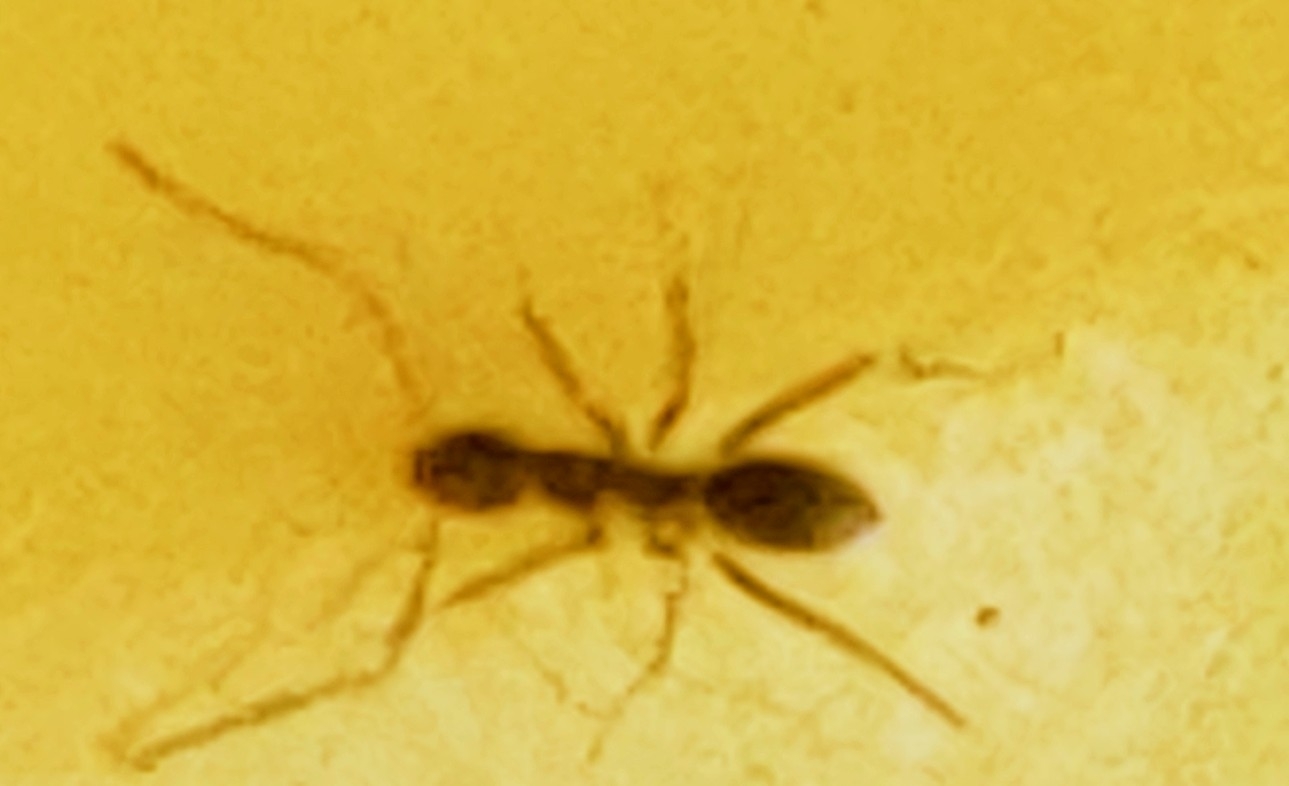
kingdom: Animalia
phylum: Arthropoda
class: Insecta
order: Hymenoptera
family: Formicidae
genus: Paratrechina
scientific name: Paratrechina longicornis
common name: Longhorned crazy ant
